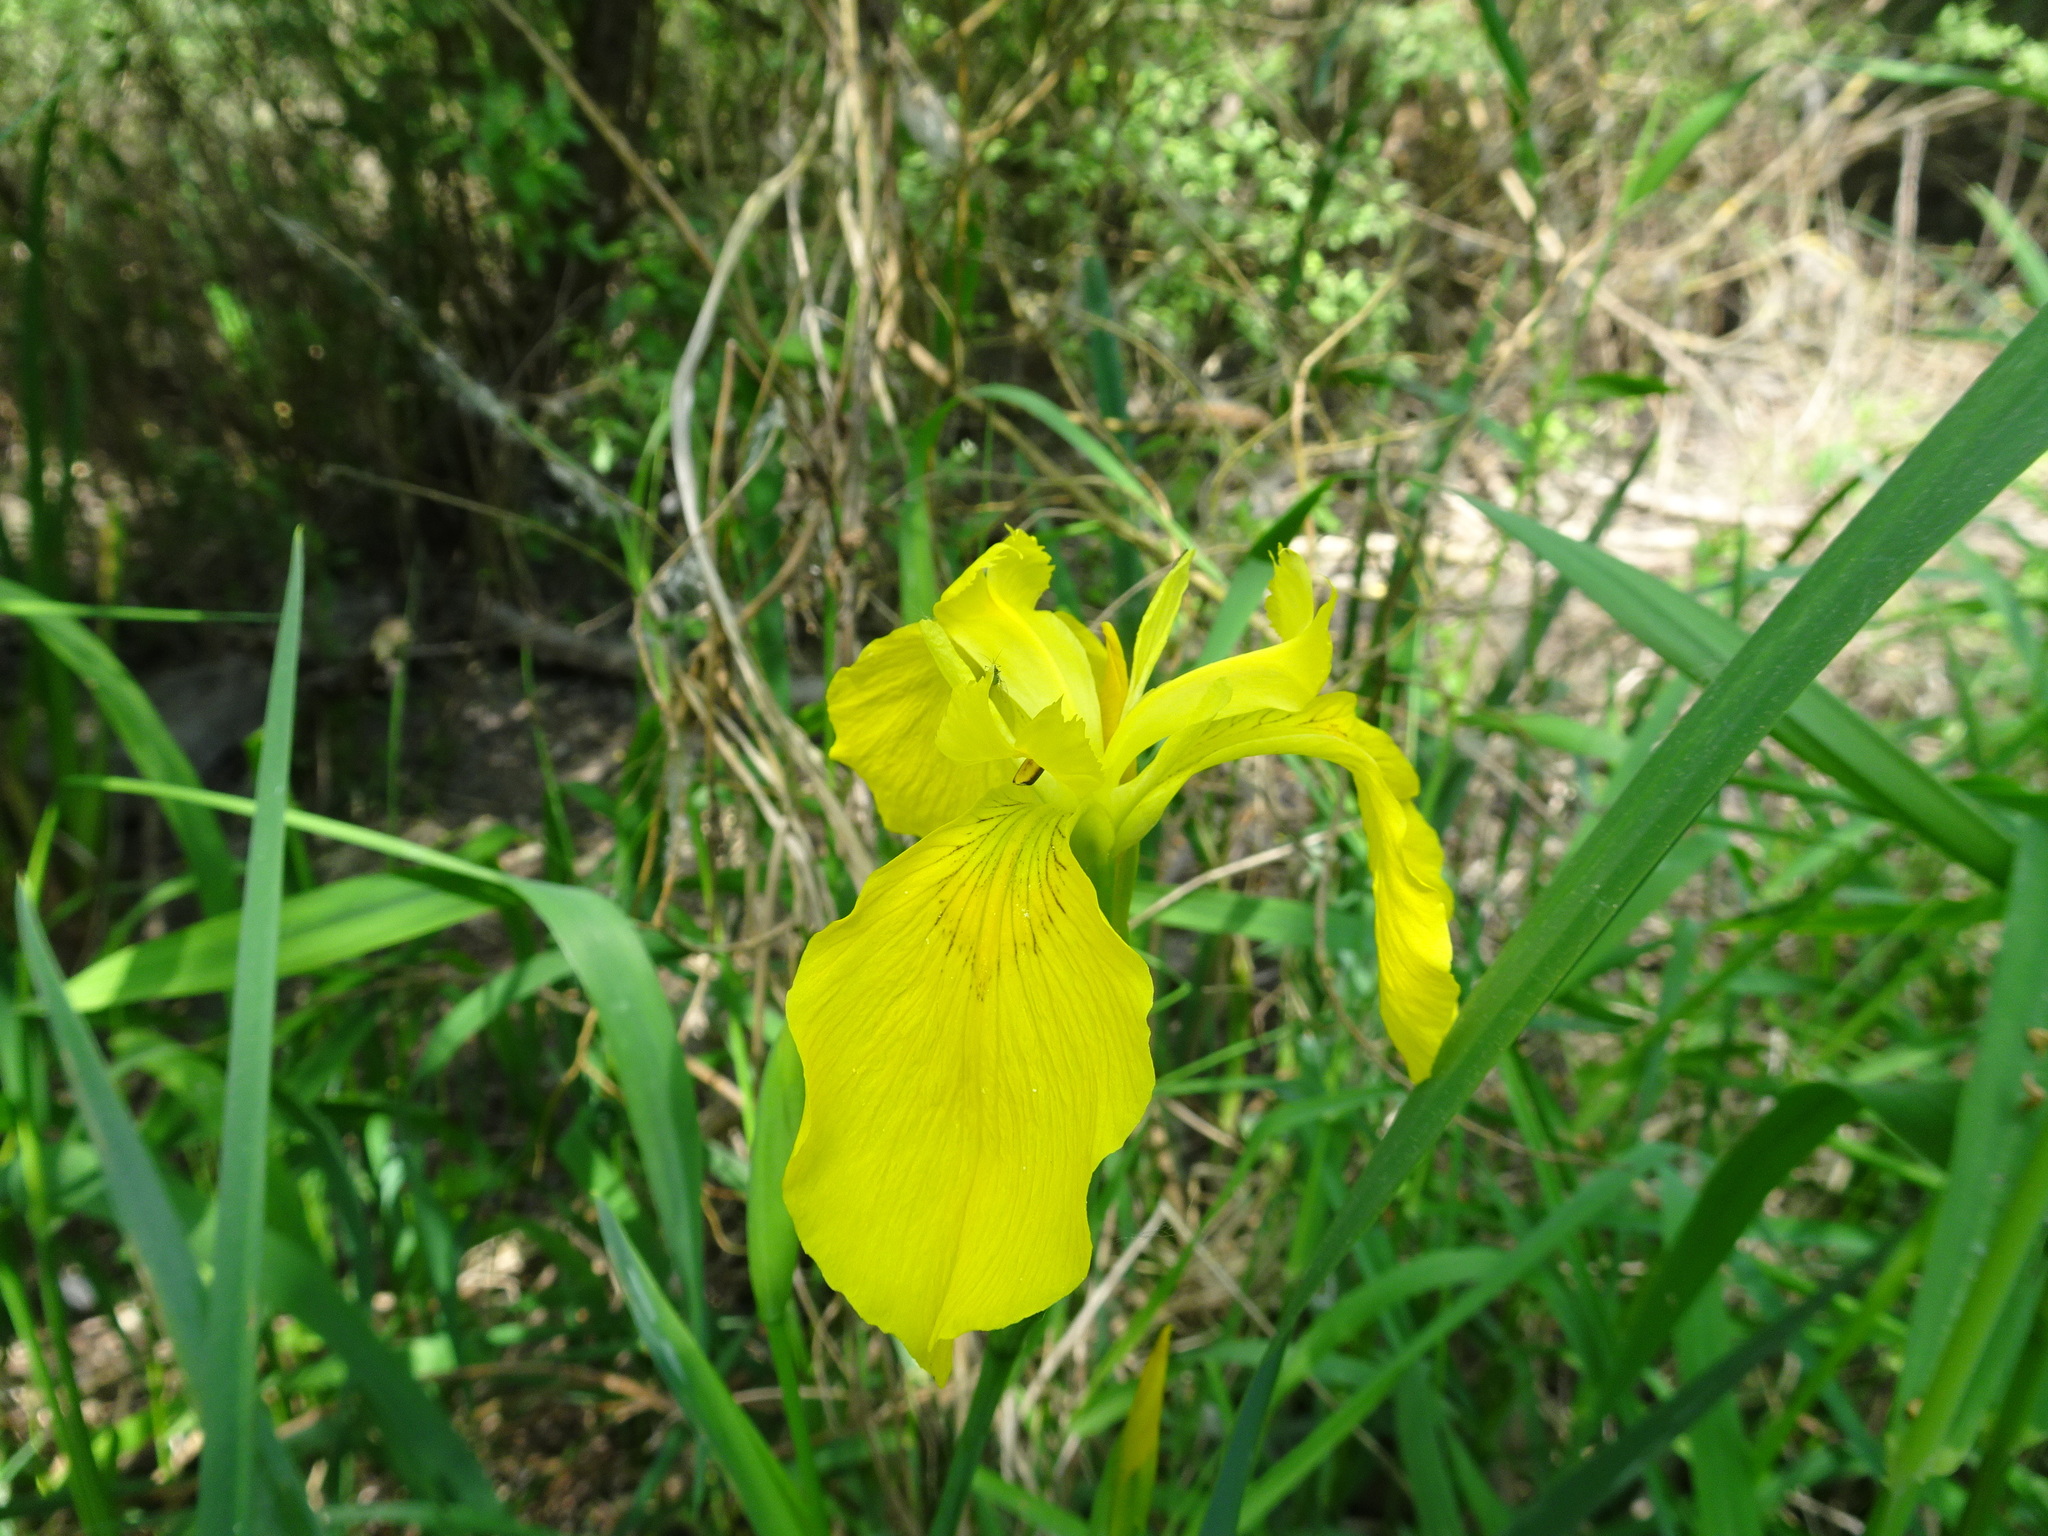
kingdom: Plantae
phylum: Tracheophyta
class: Liliopsida
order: Asparagales
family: Iridaceae
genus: Iris
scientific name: Iris pseudacorus
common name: Yellow flag
